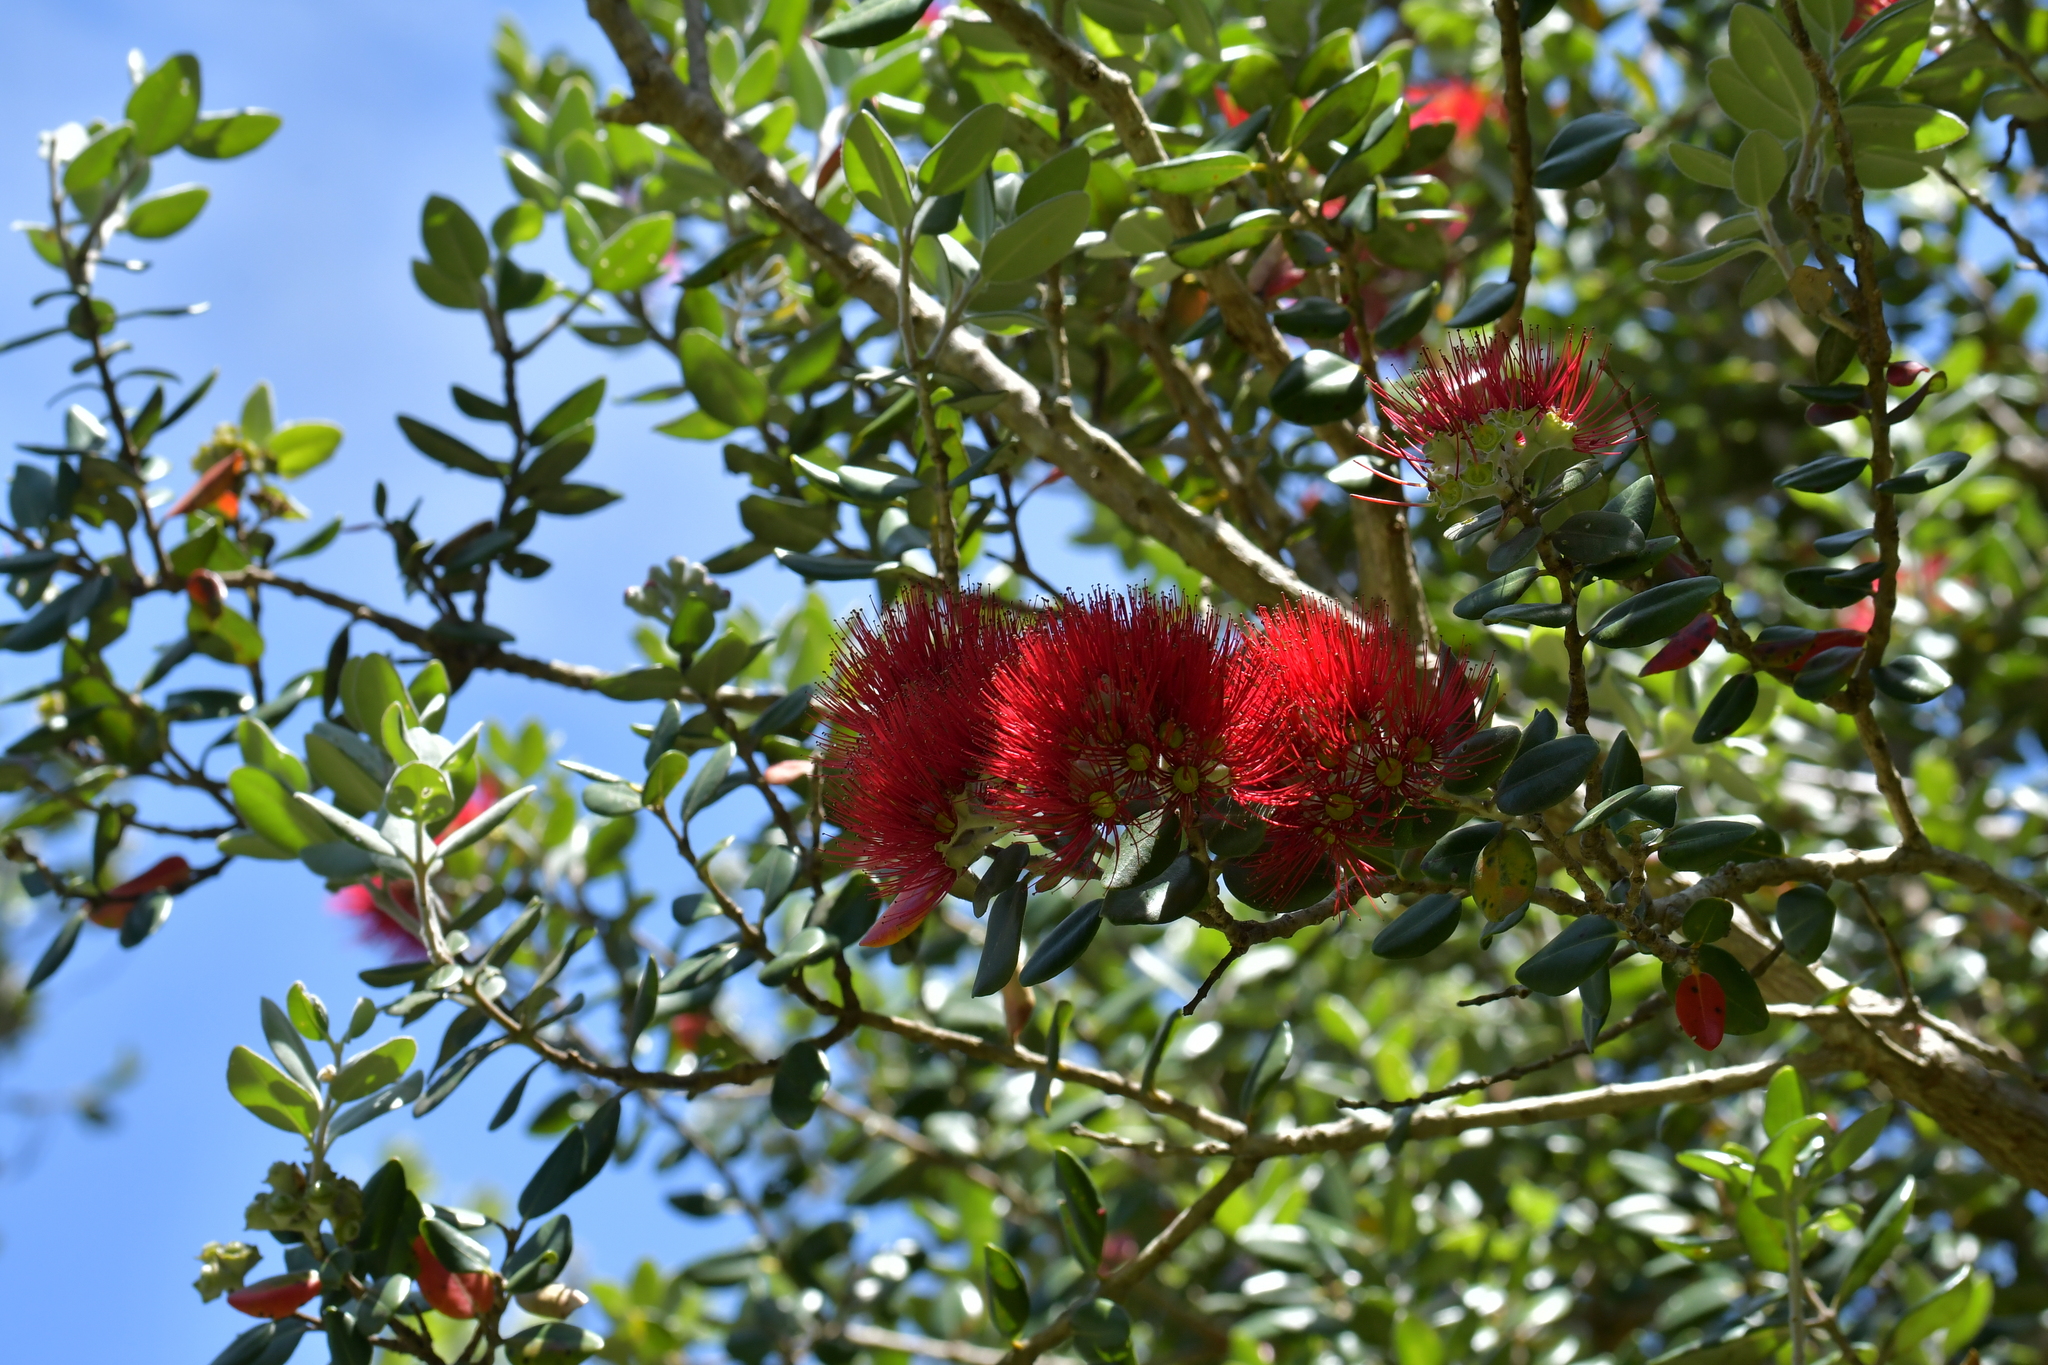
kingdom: Plantae
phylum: Tracheophyta
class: Magnoliopsida
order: Myrtales
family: Myrtaceae
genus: Metrosideros
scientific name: Metrosideros excelsa
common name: New zealand christmastree
